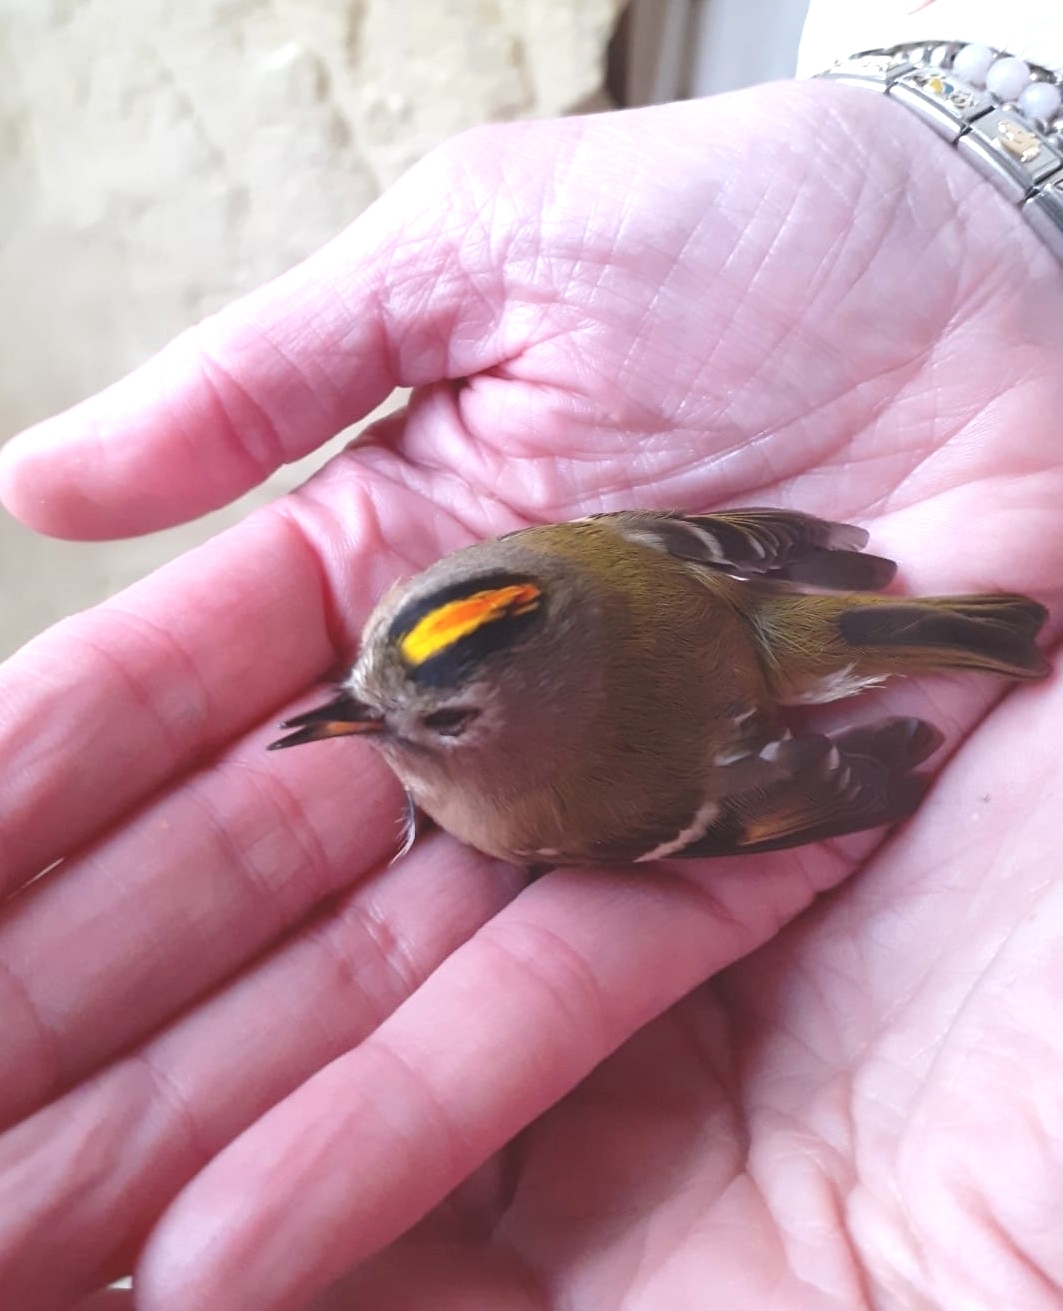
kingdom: Animalia
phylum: Chordata
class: Aves
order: Passeriformes
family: Regulidae
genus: Regulus
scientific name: Regulus regulus
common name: Goldcrest
